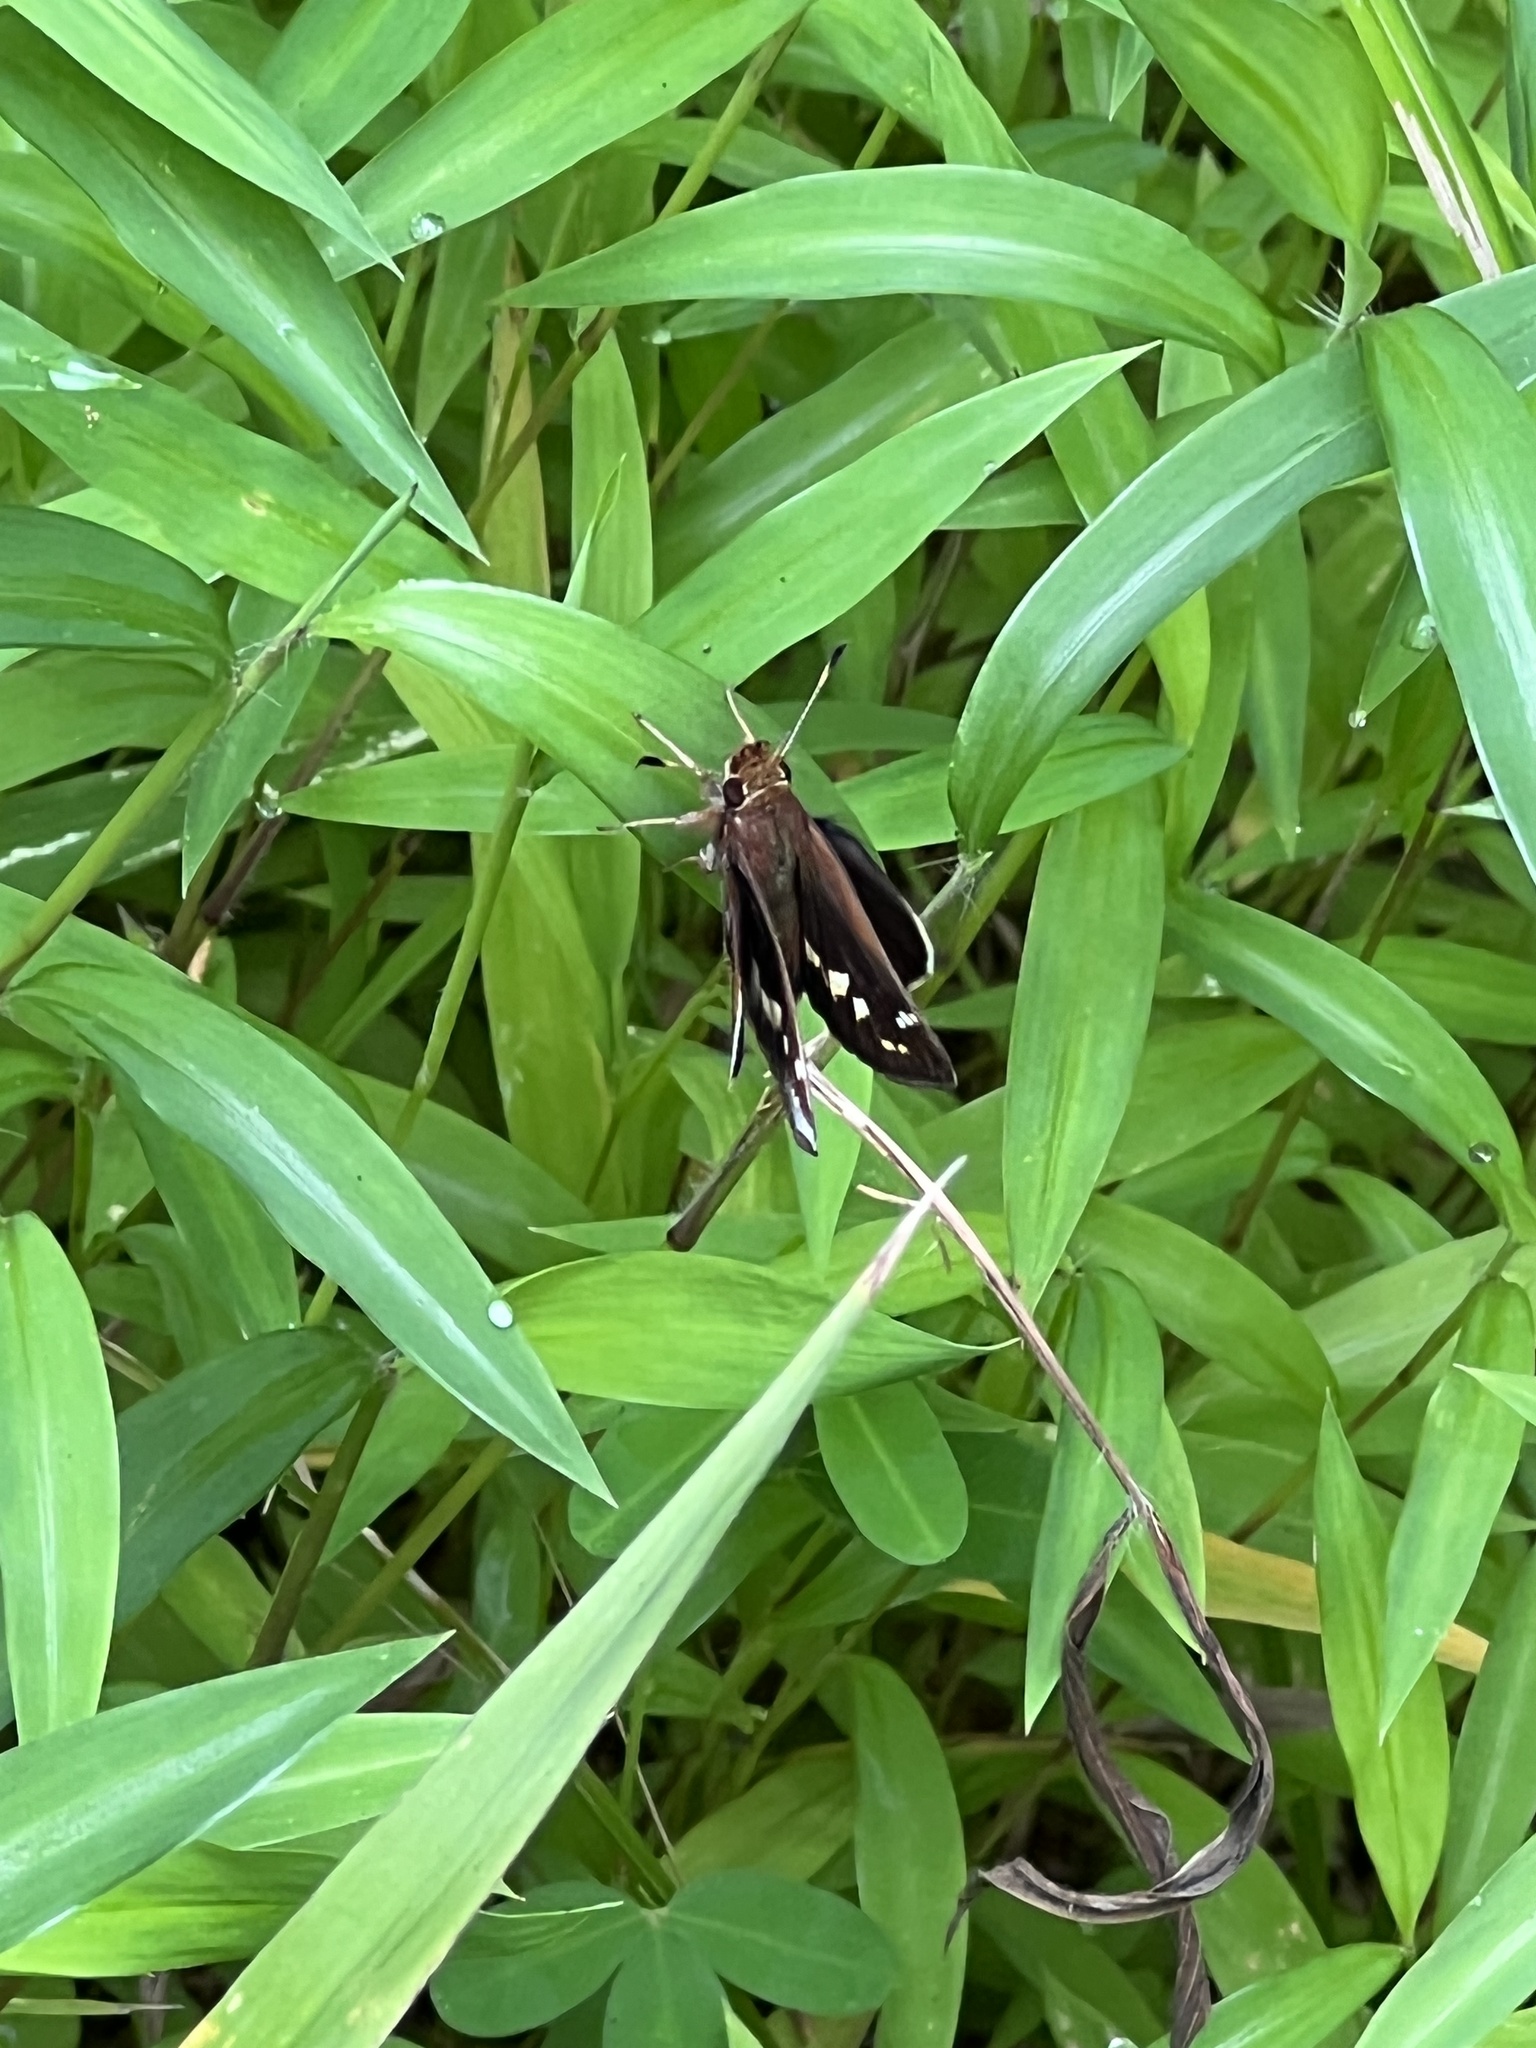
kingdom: Animalia
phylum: Arthropoda
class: Insecta
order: Lepidoptera
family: Hesperiidae
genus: Lon
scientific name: Lon zabulon
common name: Zabulon skipper
